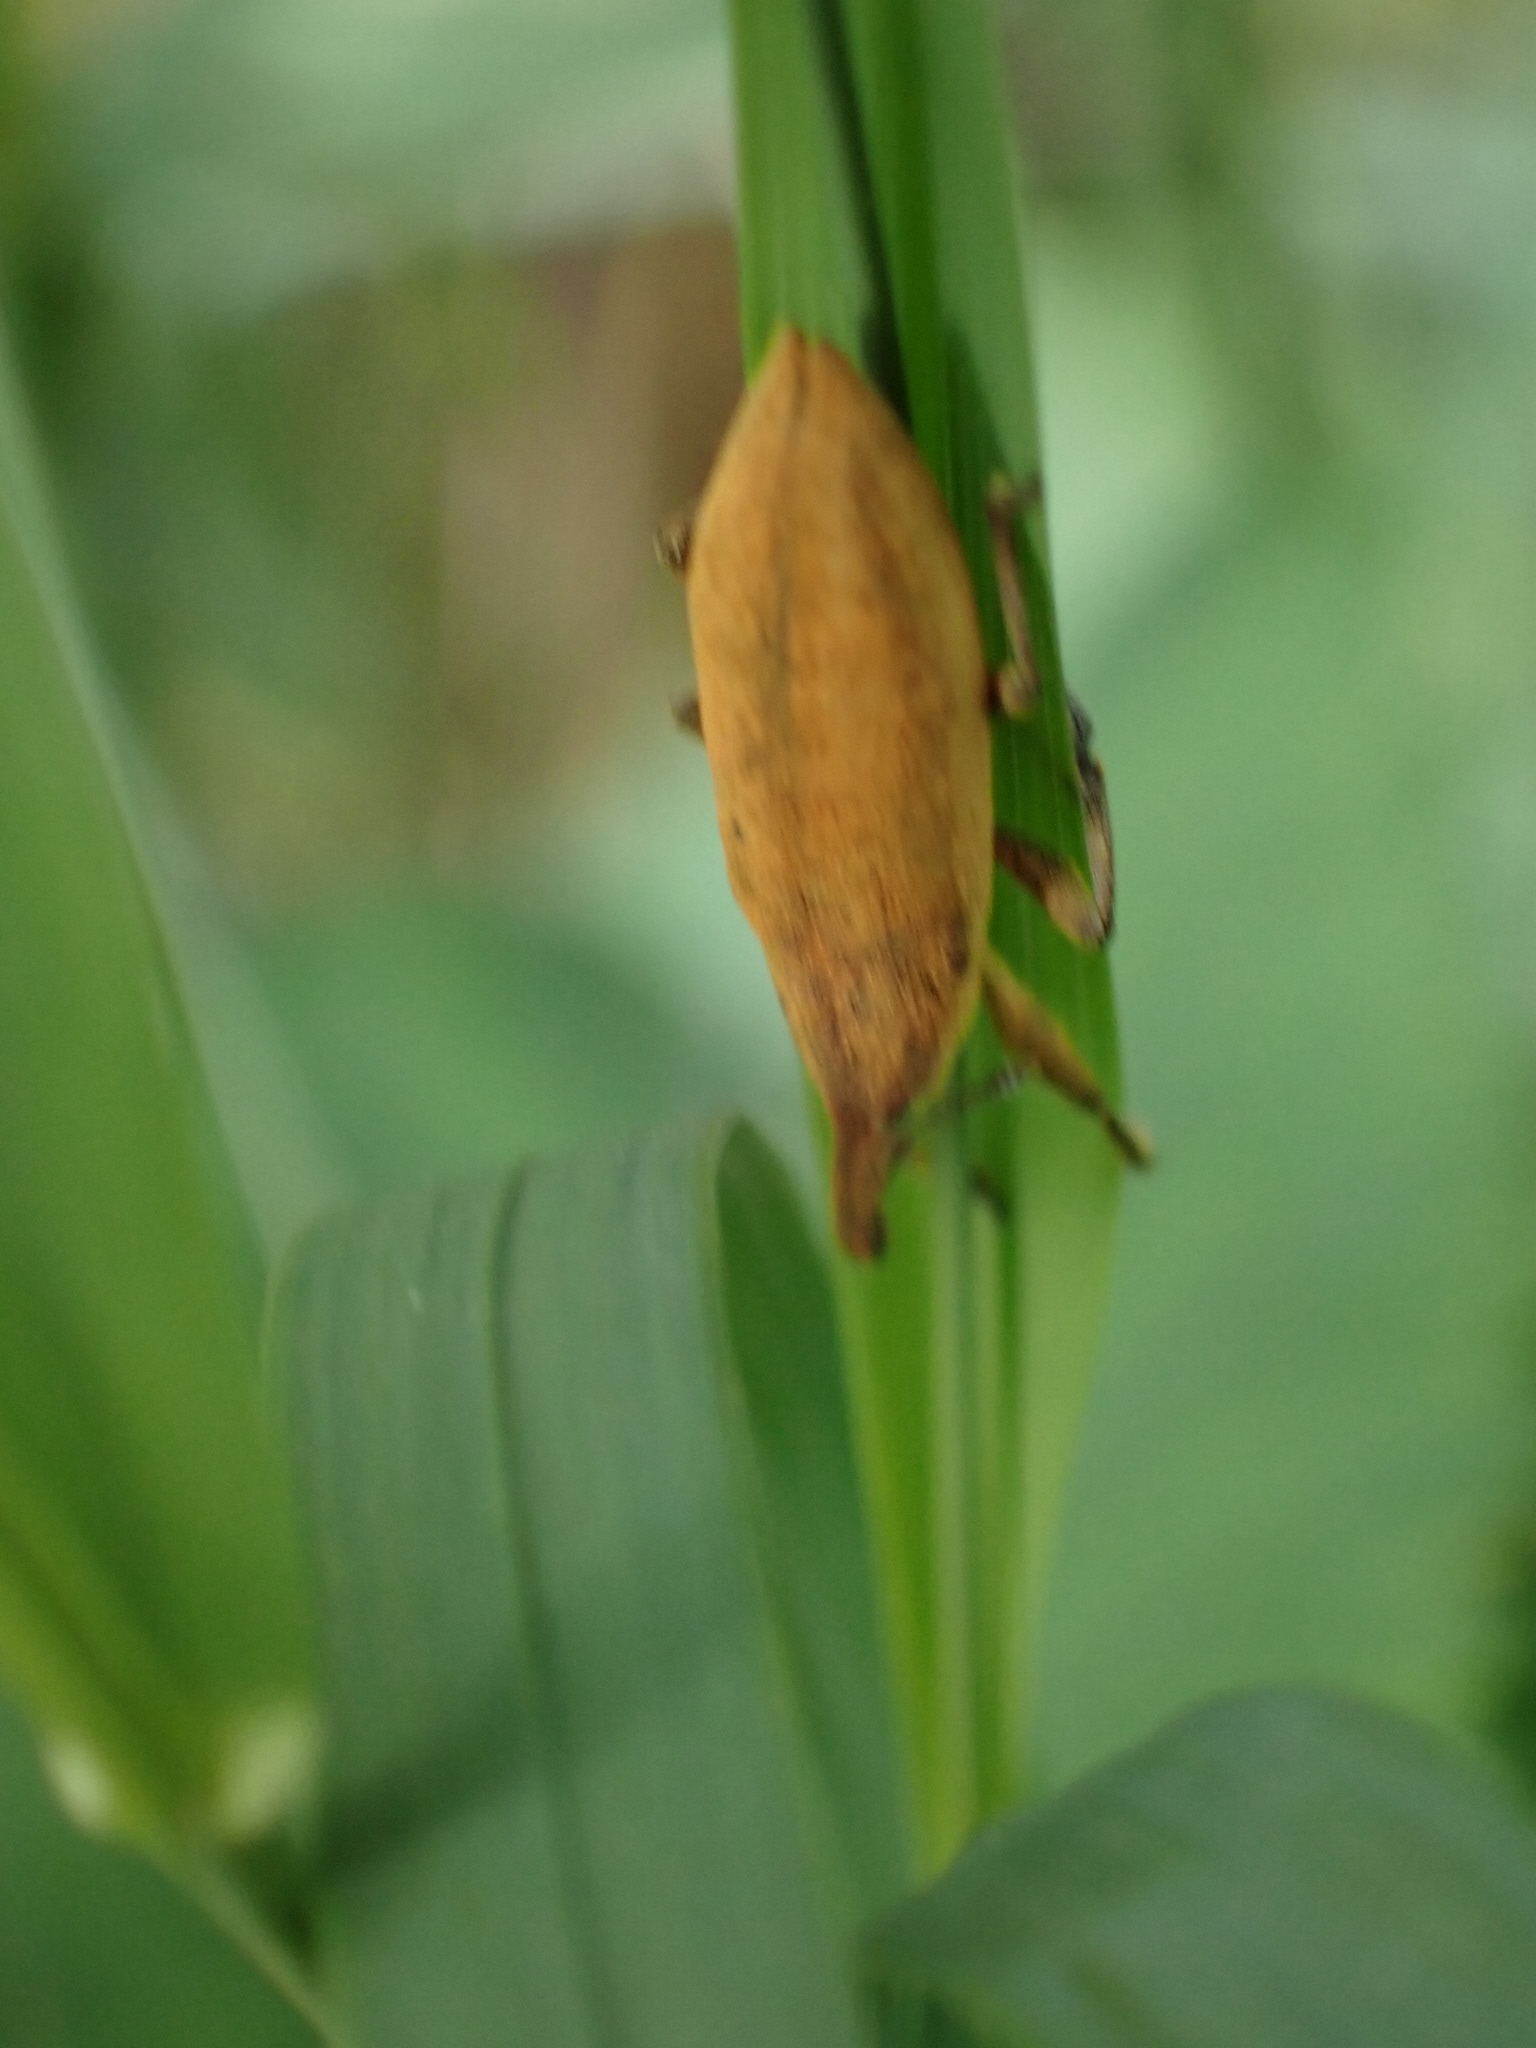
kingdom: Animalia
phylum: Arthropoda
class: Insecta
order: Coleoptera
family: Curculionidae
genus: Lixus
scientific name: Lixus iridis
